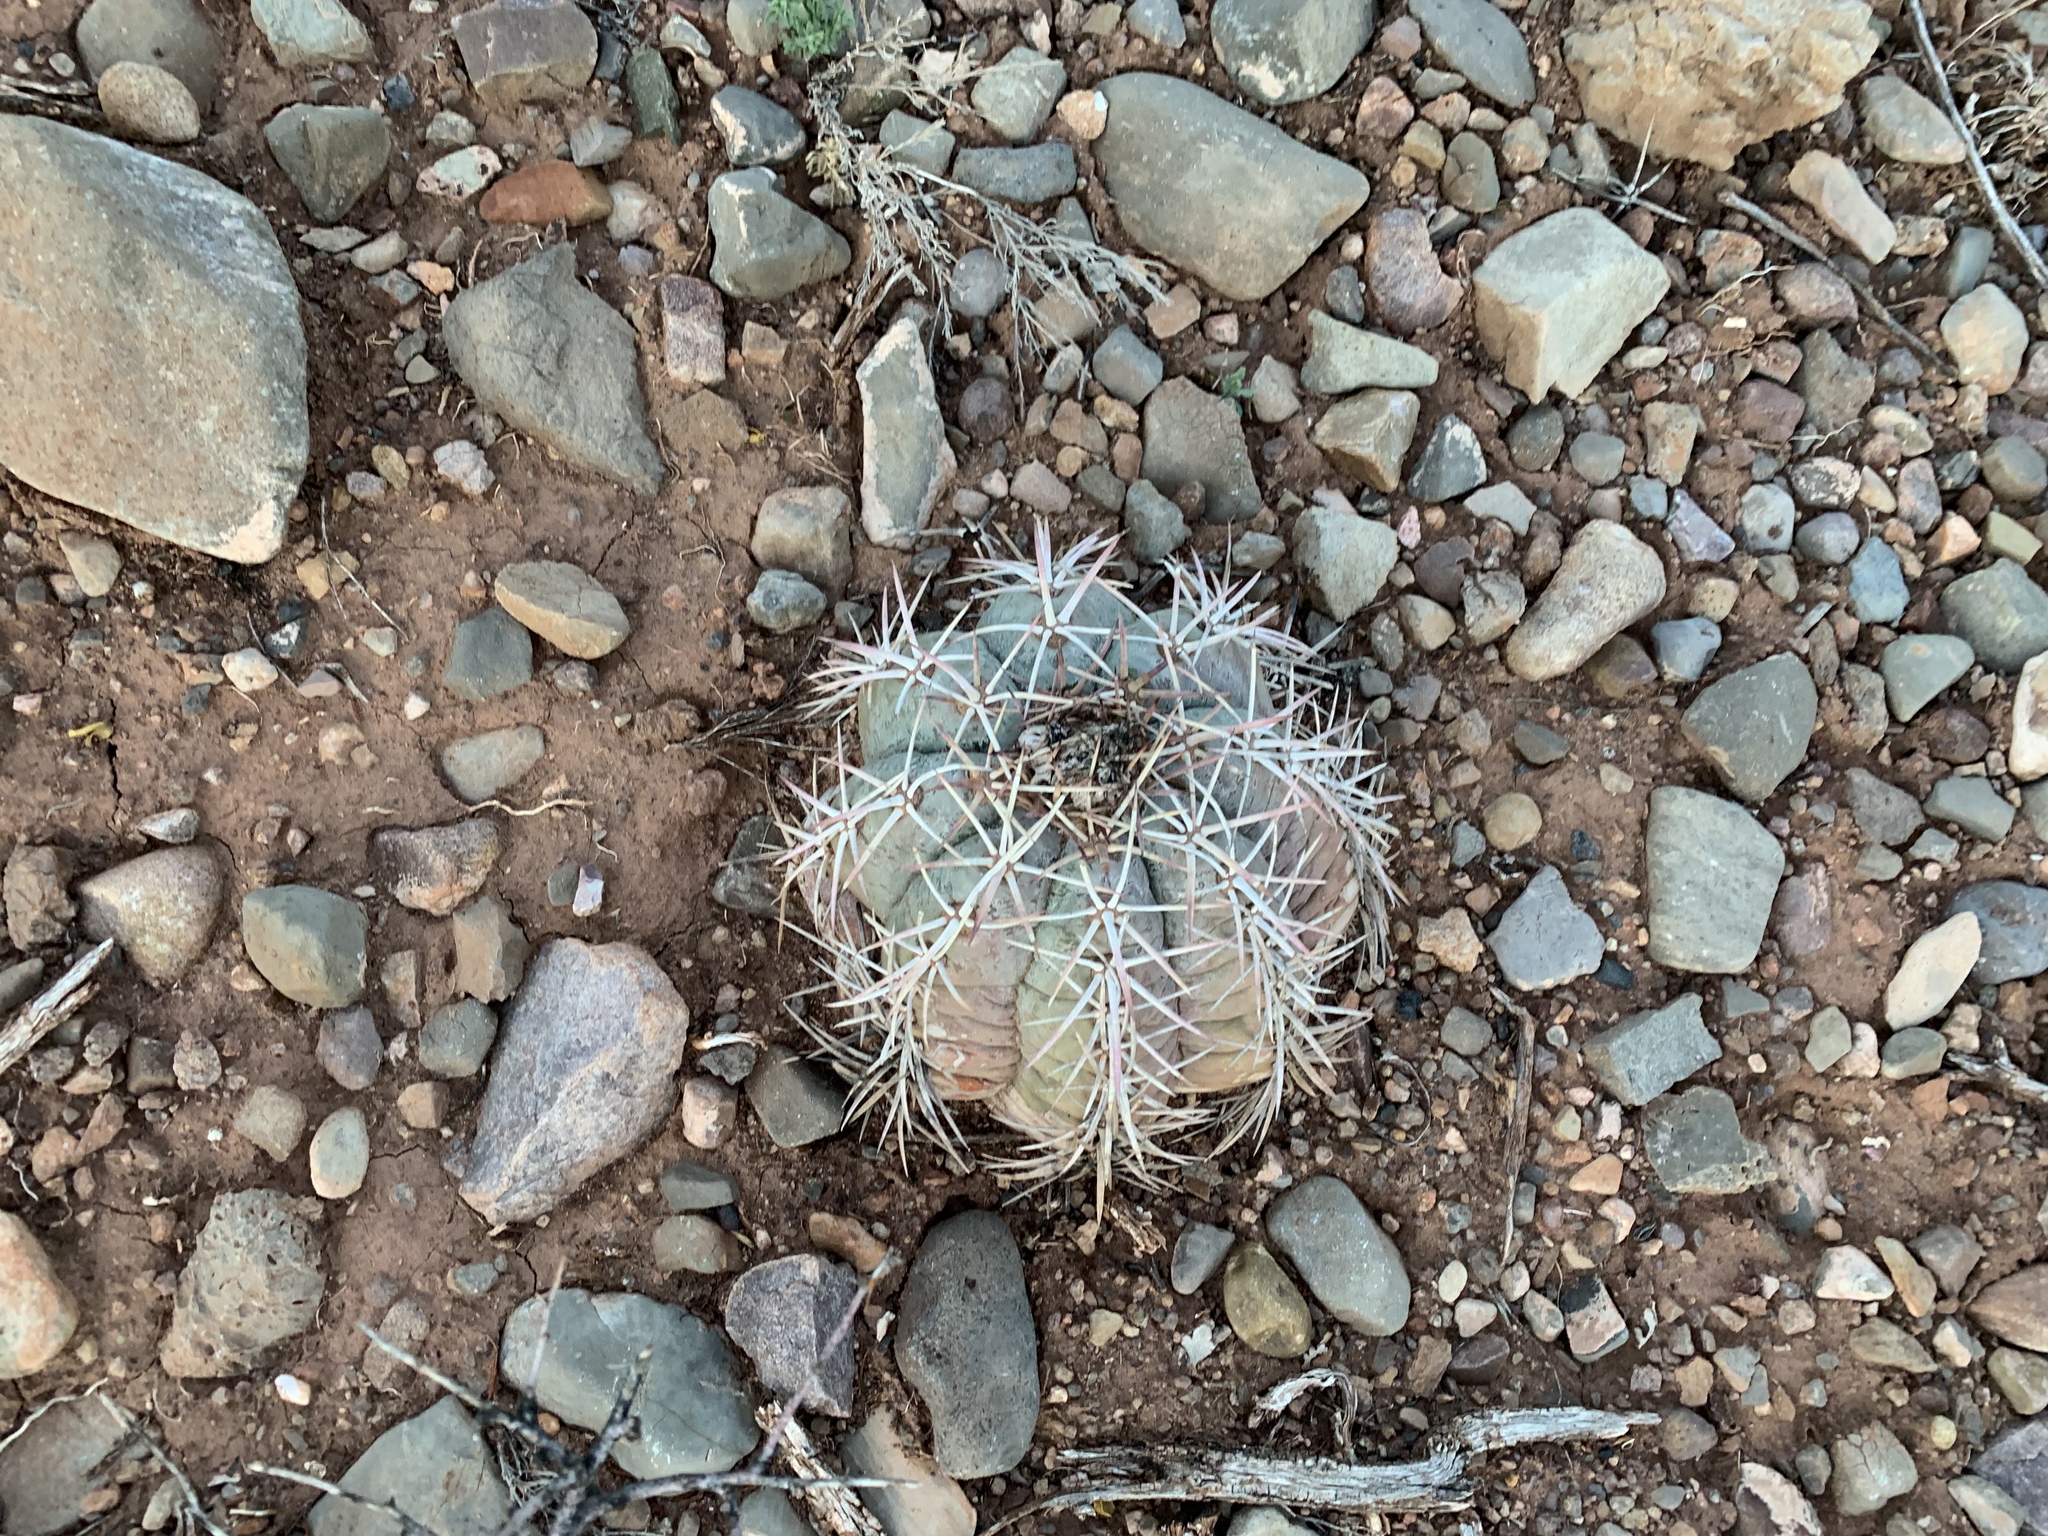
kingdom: Plantae
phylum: Tracheophyta
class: Magnoliopsida
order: Caryophyllales
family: Cactaceae
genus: Echinocactus
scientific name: Echinocactus horizonthalonius
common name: Devilshead
